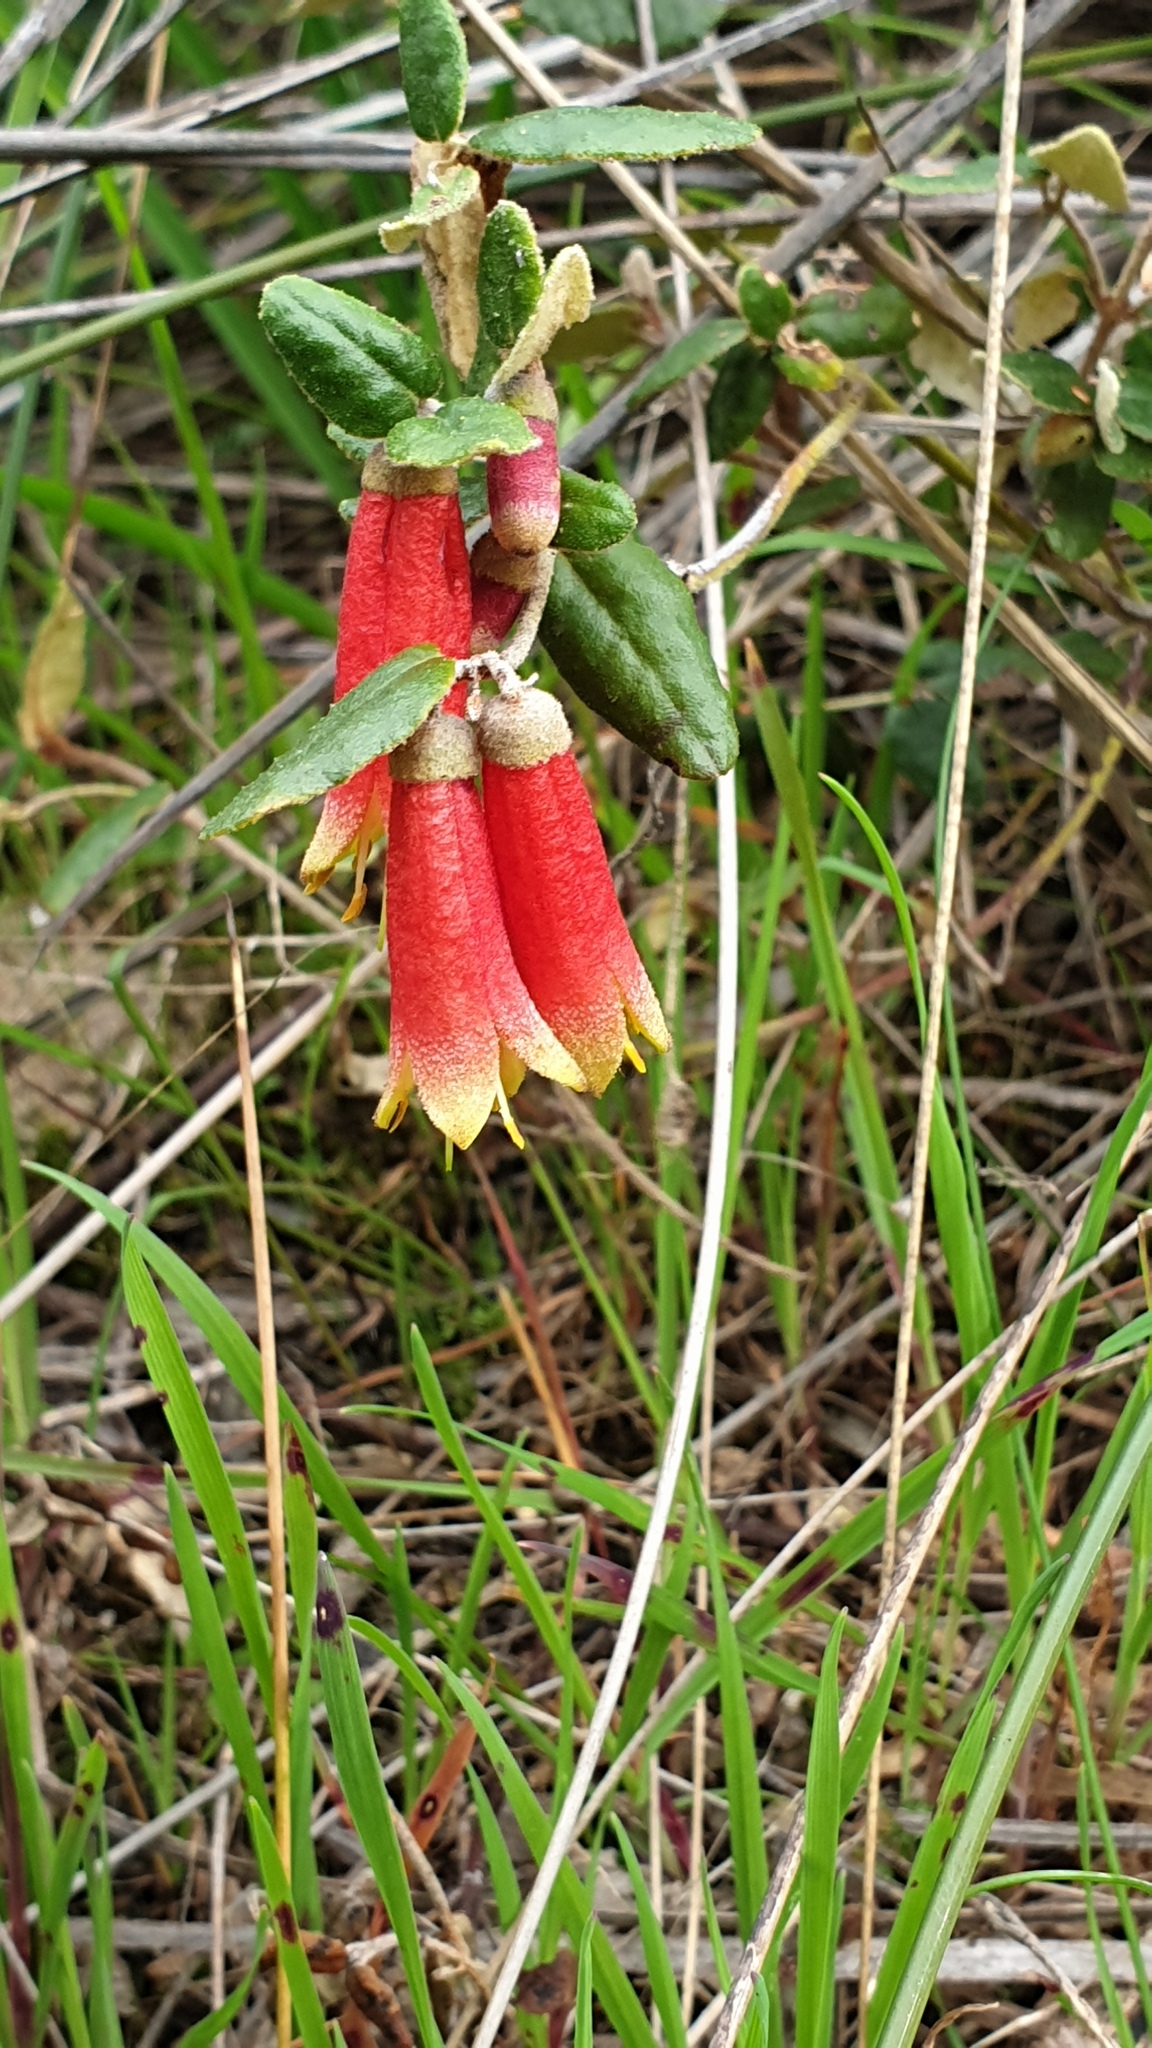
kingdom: Plantae
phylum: Tracheophyta
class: Magnoliopsida
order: Sapindales
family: Rutaceae
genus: Correa
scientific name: Correa reflexa
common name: Common correa
